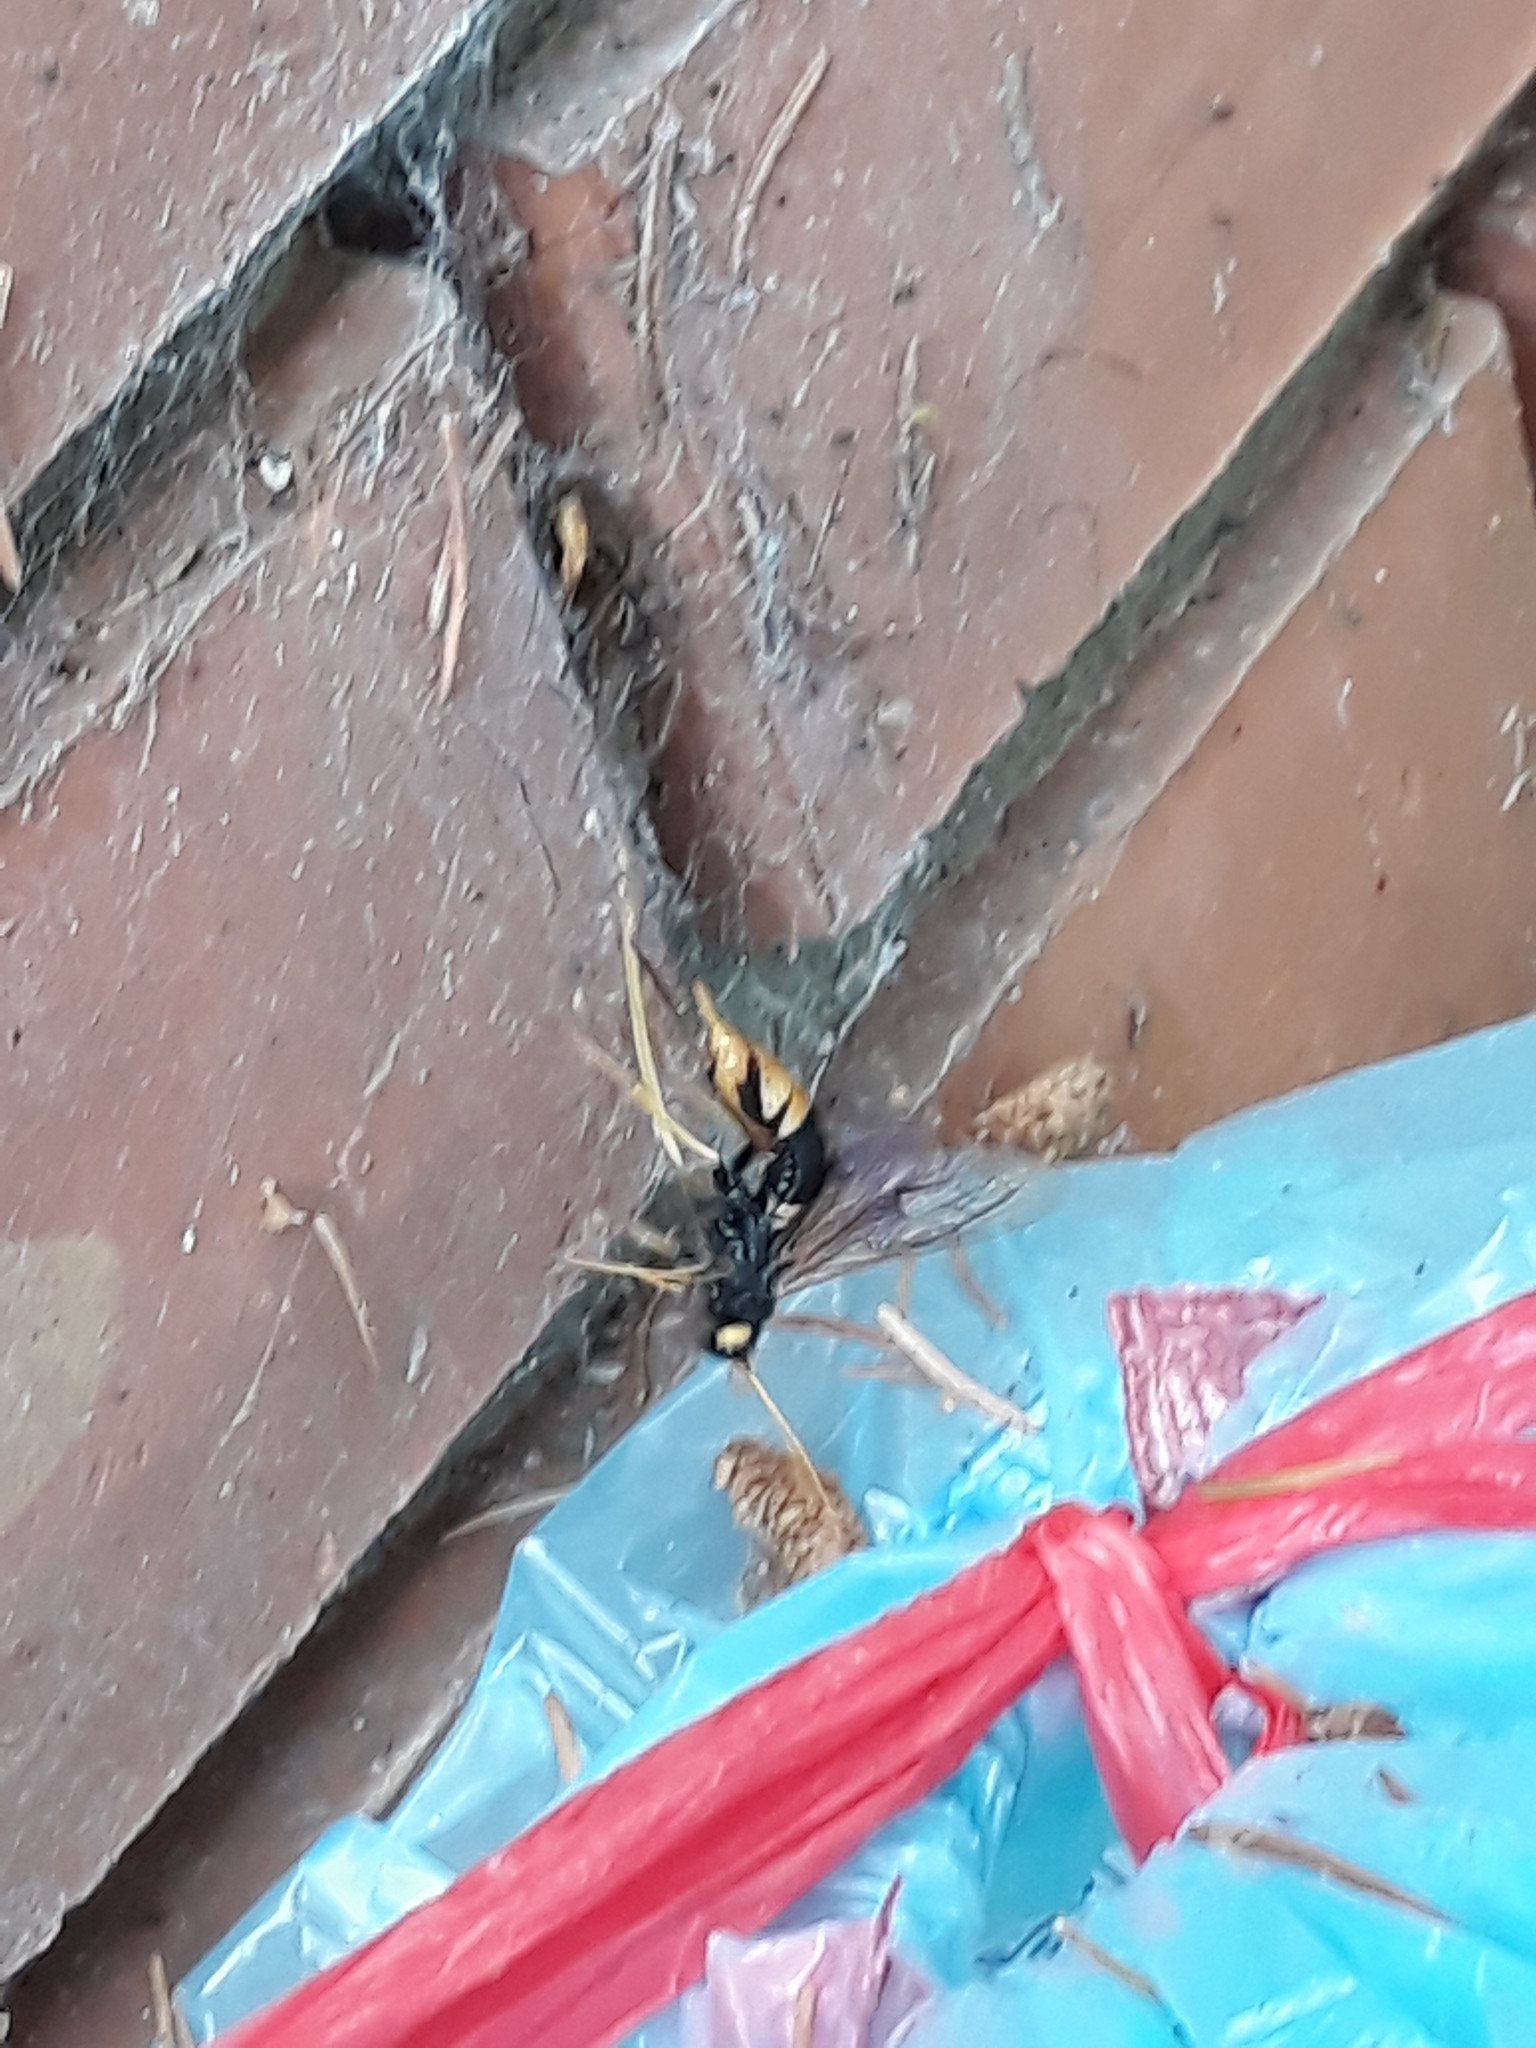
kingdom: Animalia
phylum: Arthropoda
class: Insecta
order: Hymenoptera
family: Siricidae
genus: Urocerus
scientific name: Urocerus gigas
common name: Giant woodwasp
